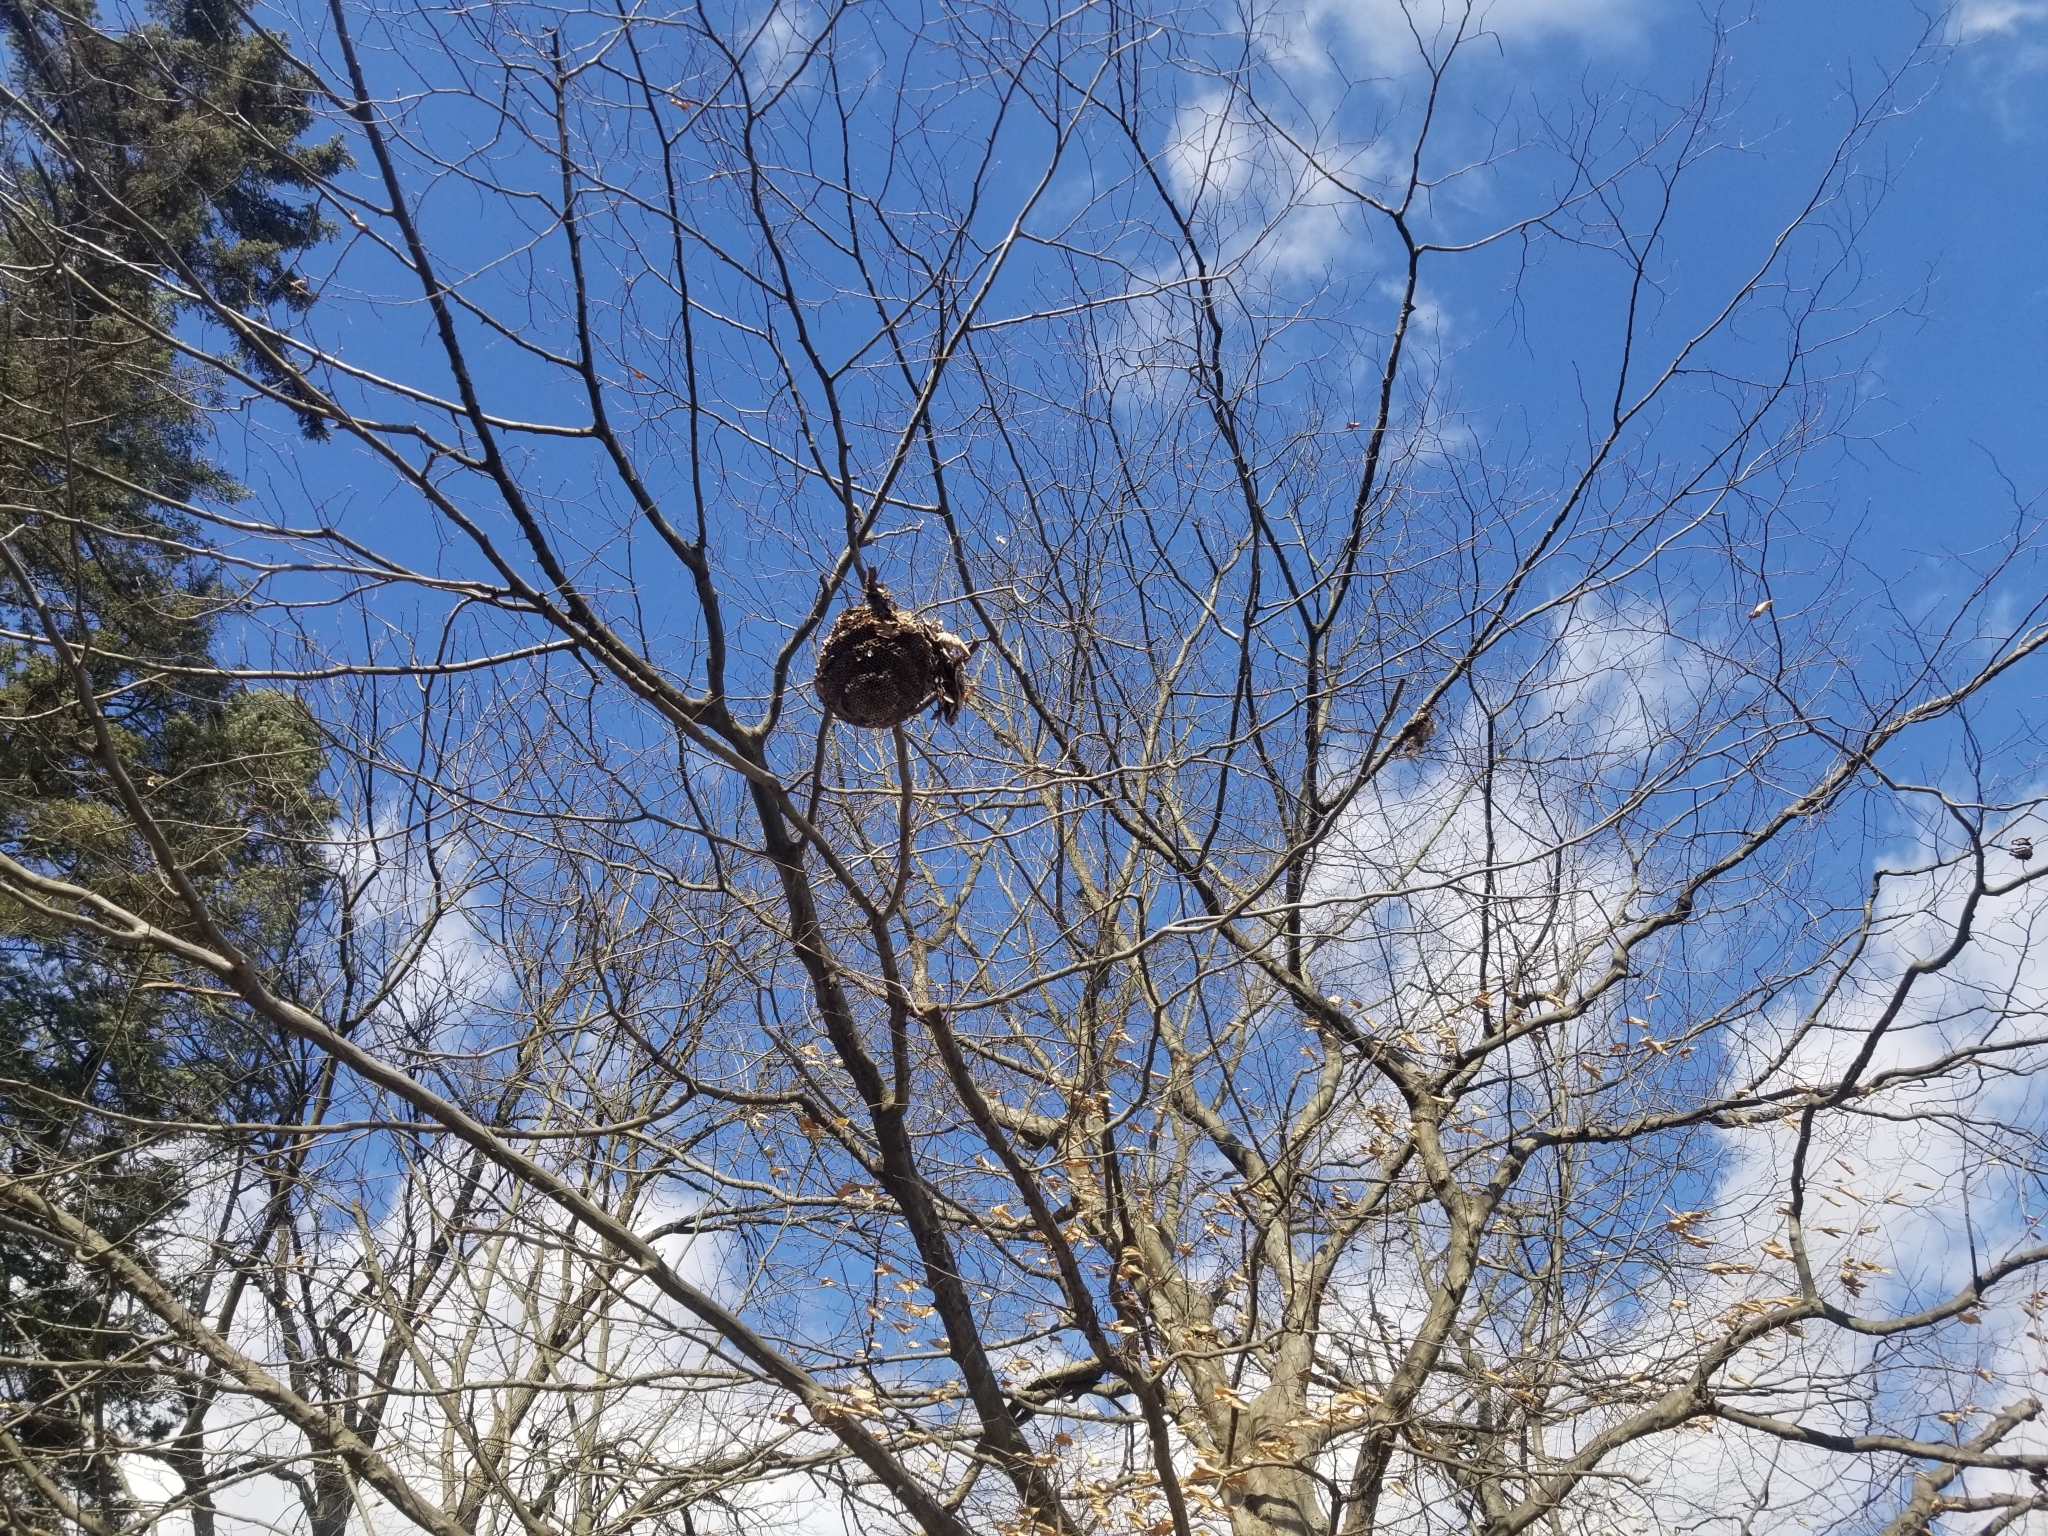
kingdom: Animalia
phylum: Arthropoda
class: Insecta
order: Hymenoptera
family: Vespidae
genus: Dolichovespula
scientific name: Dolichovespula
